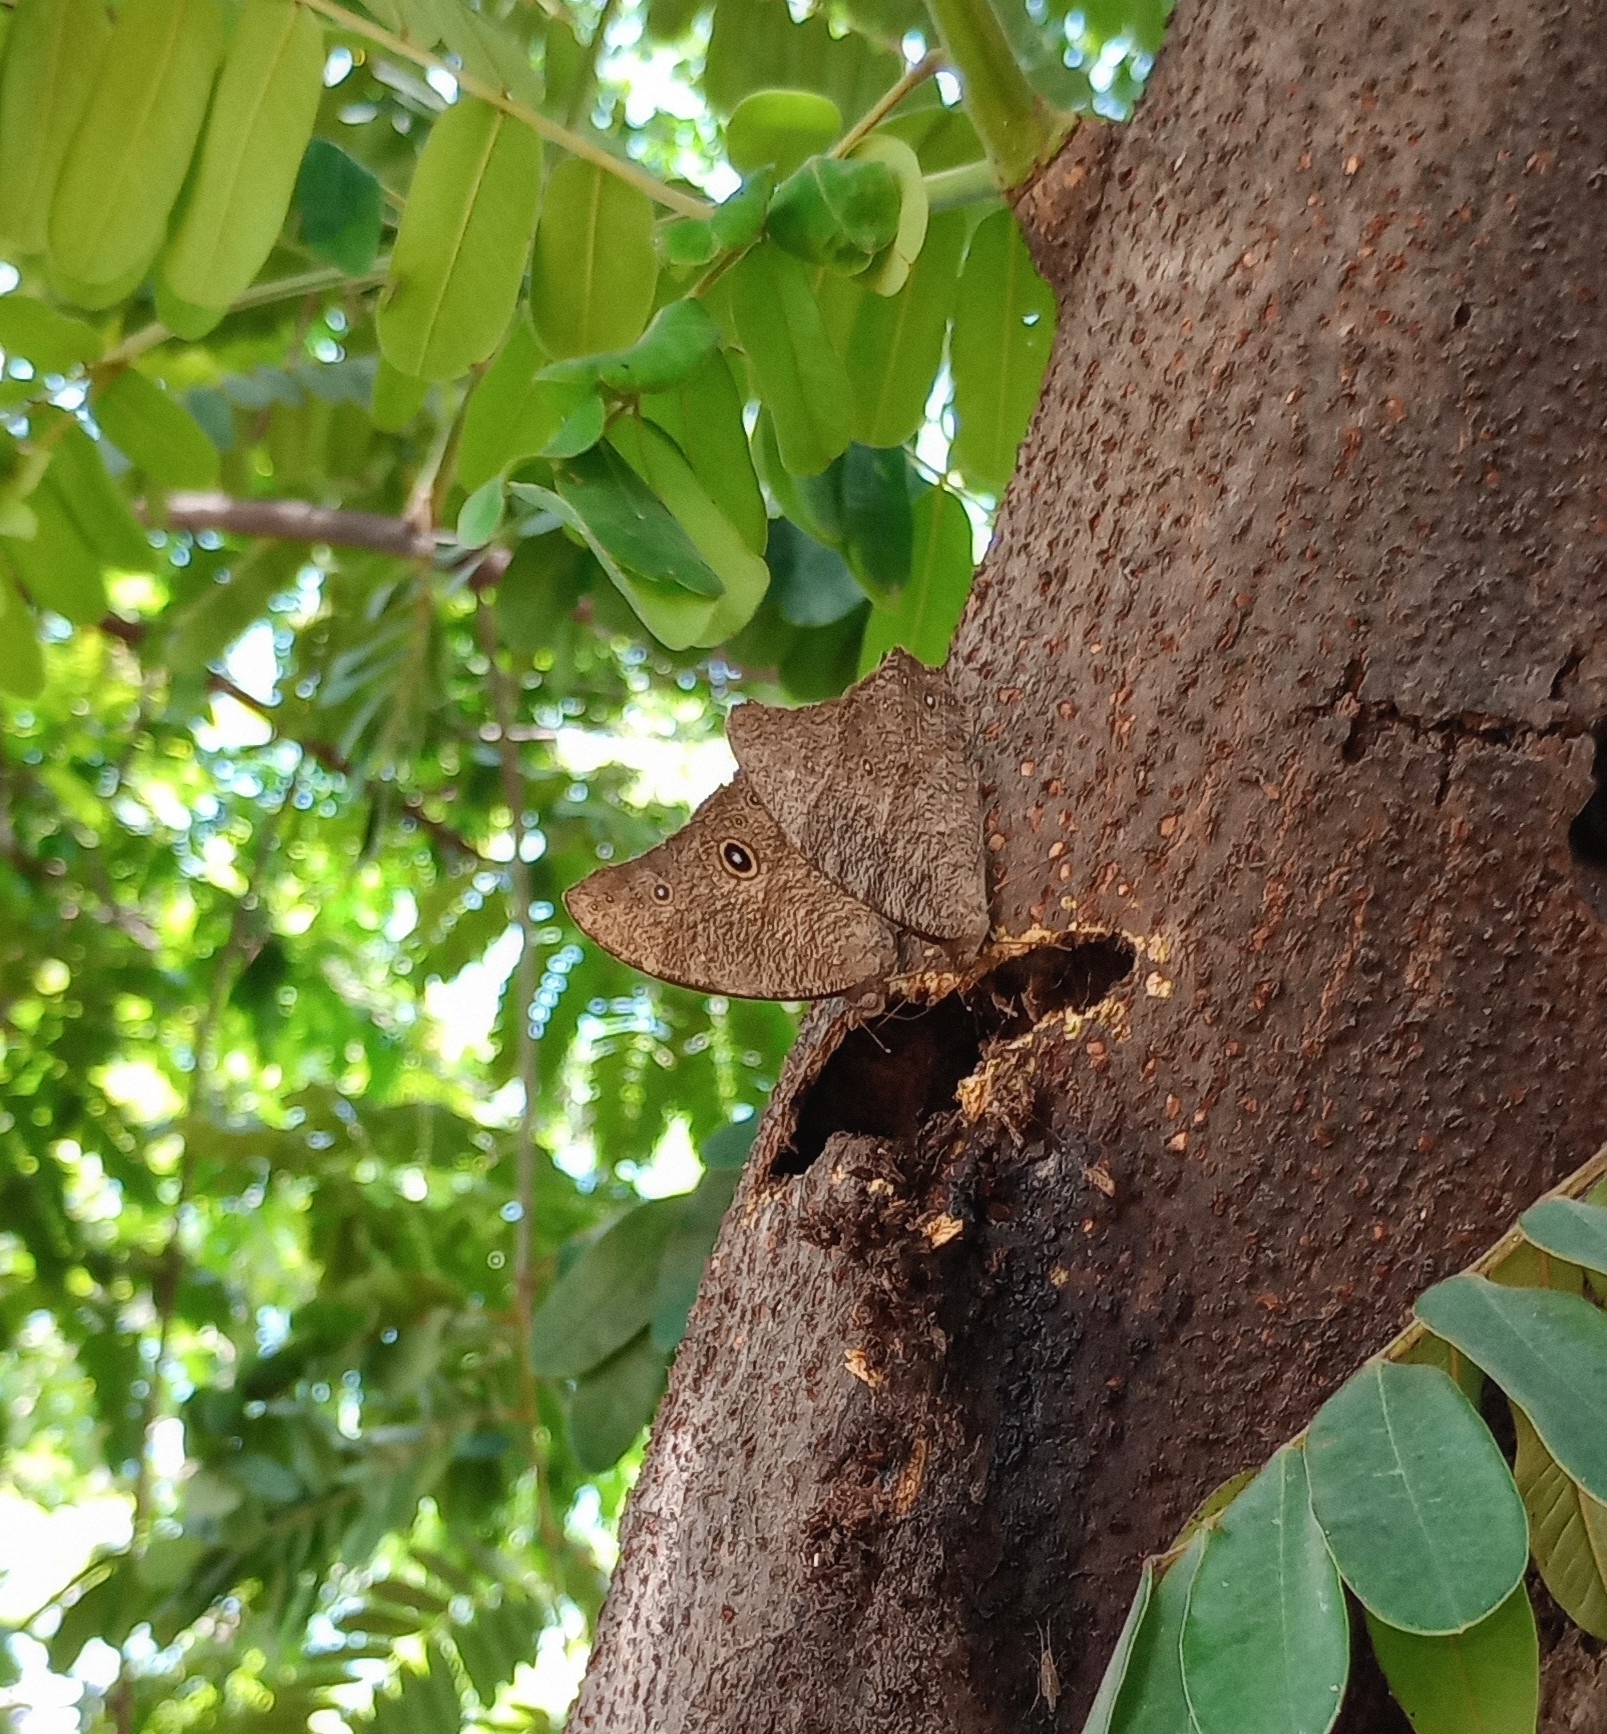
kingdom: Animalia
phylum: Arthropoda
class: Insecta
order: Lepidoptera
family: Nymphalidae
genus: Melanitis
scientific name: Melanitis leda
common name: Twilight brown
